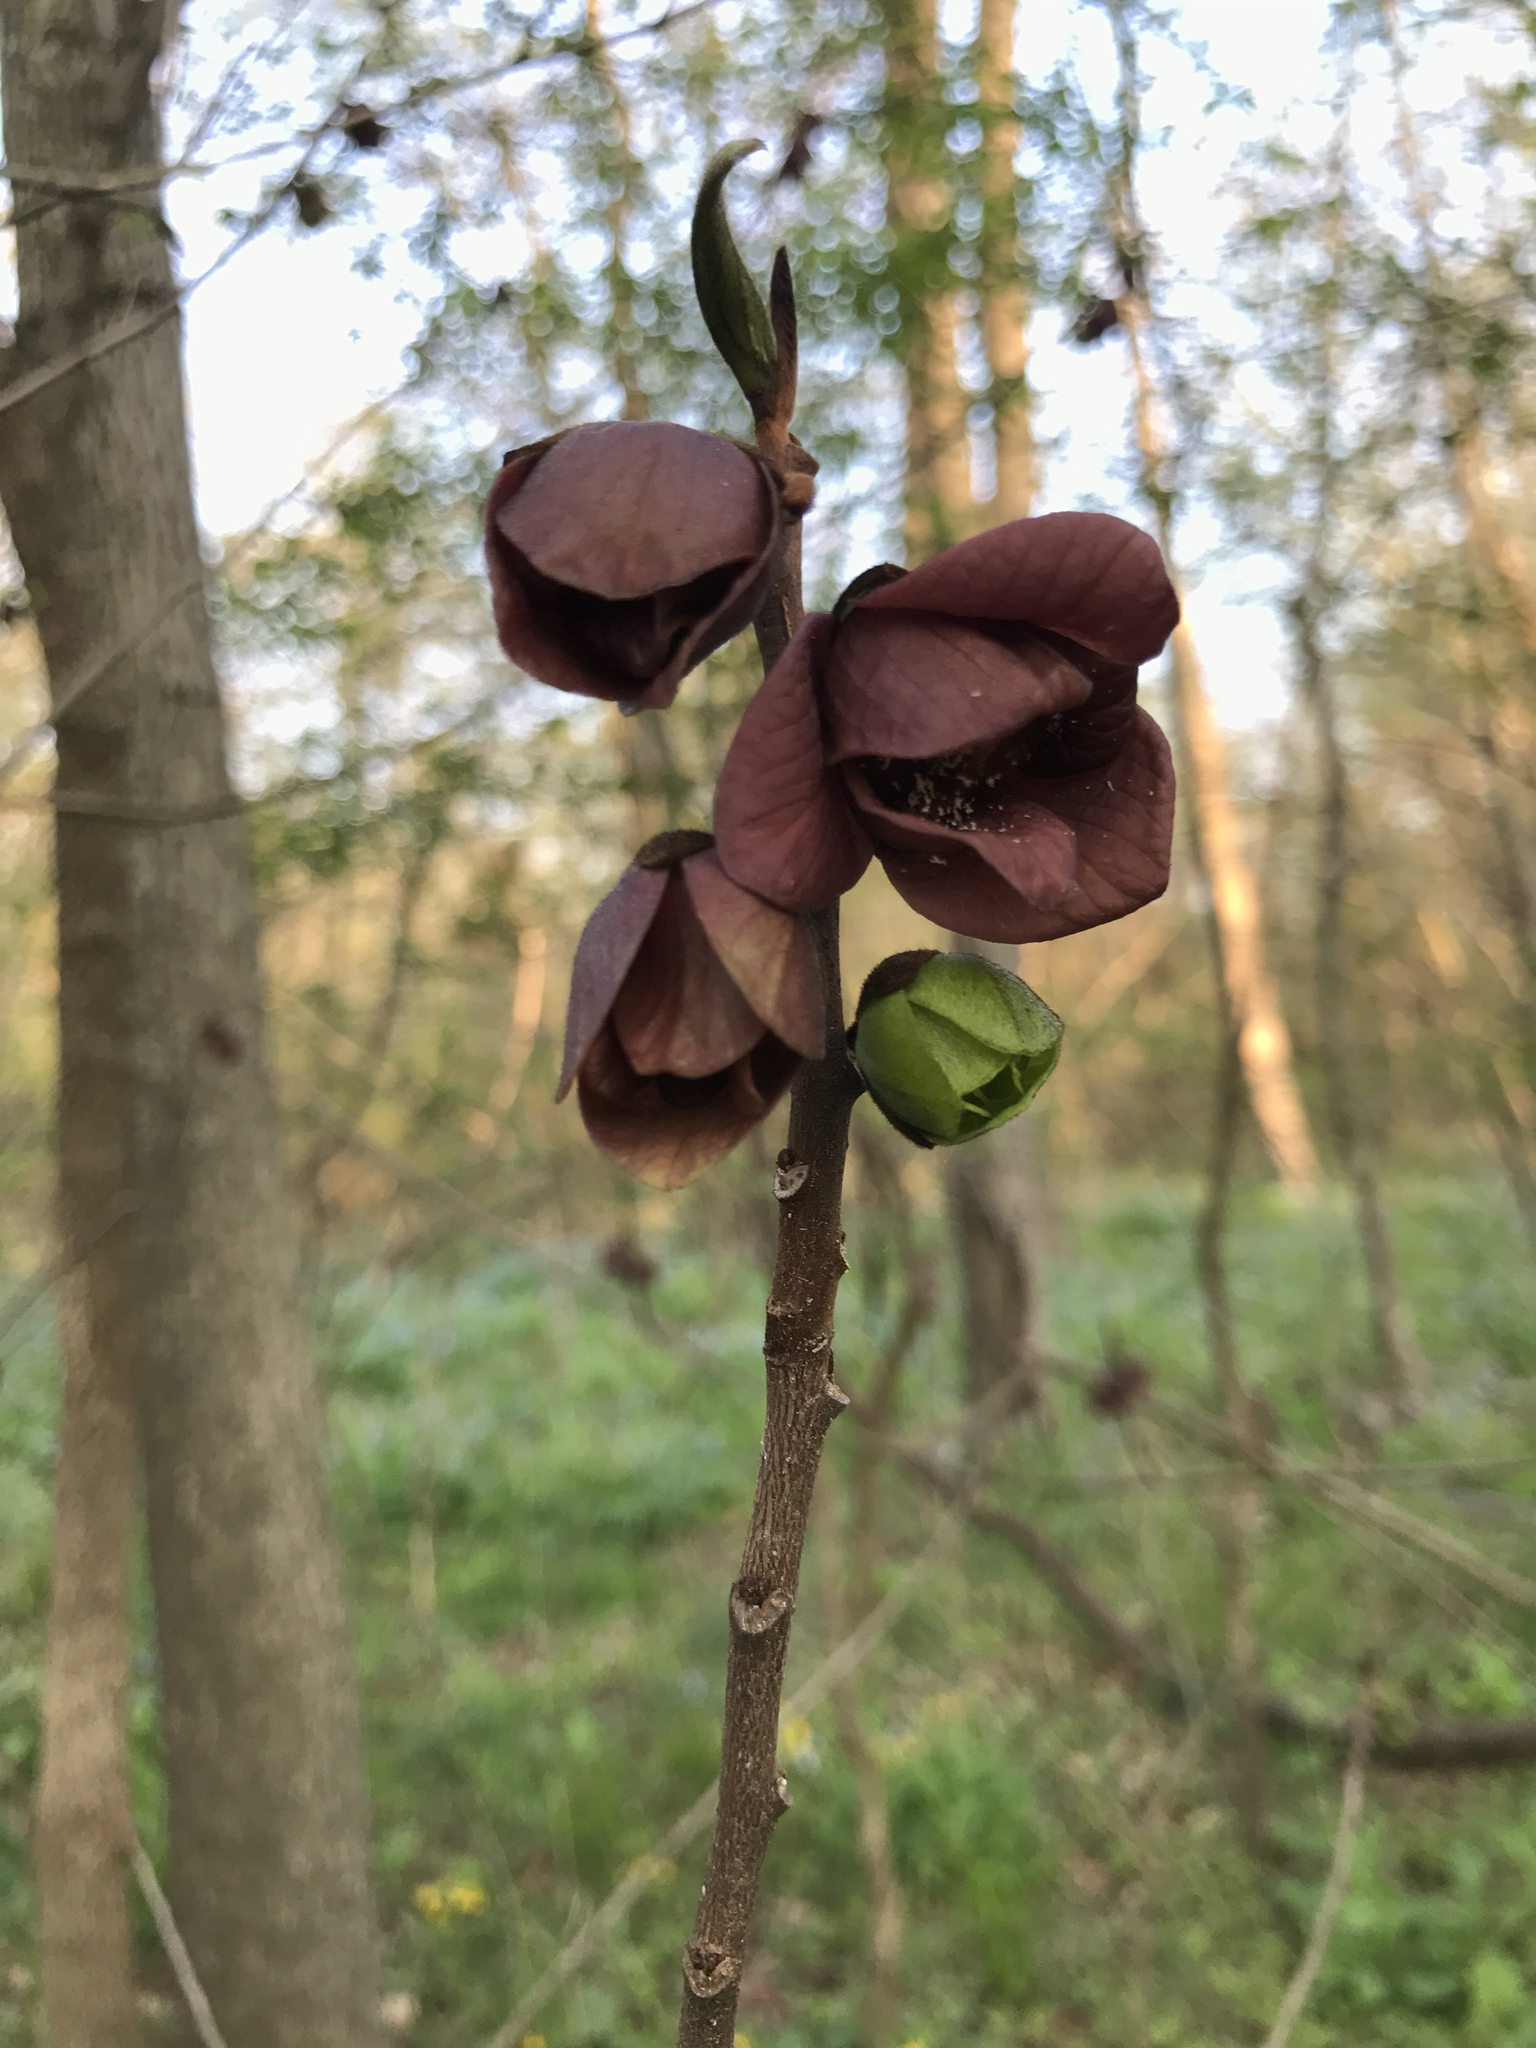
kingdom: Plantae
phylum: Tracheophyta
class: Magnoliopsida
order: Magnoliales
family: Annonaceae
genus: Asimina
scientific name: Asimina triloba
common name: Dog-banana
